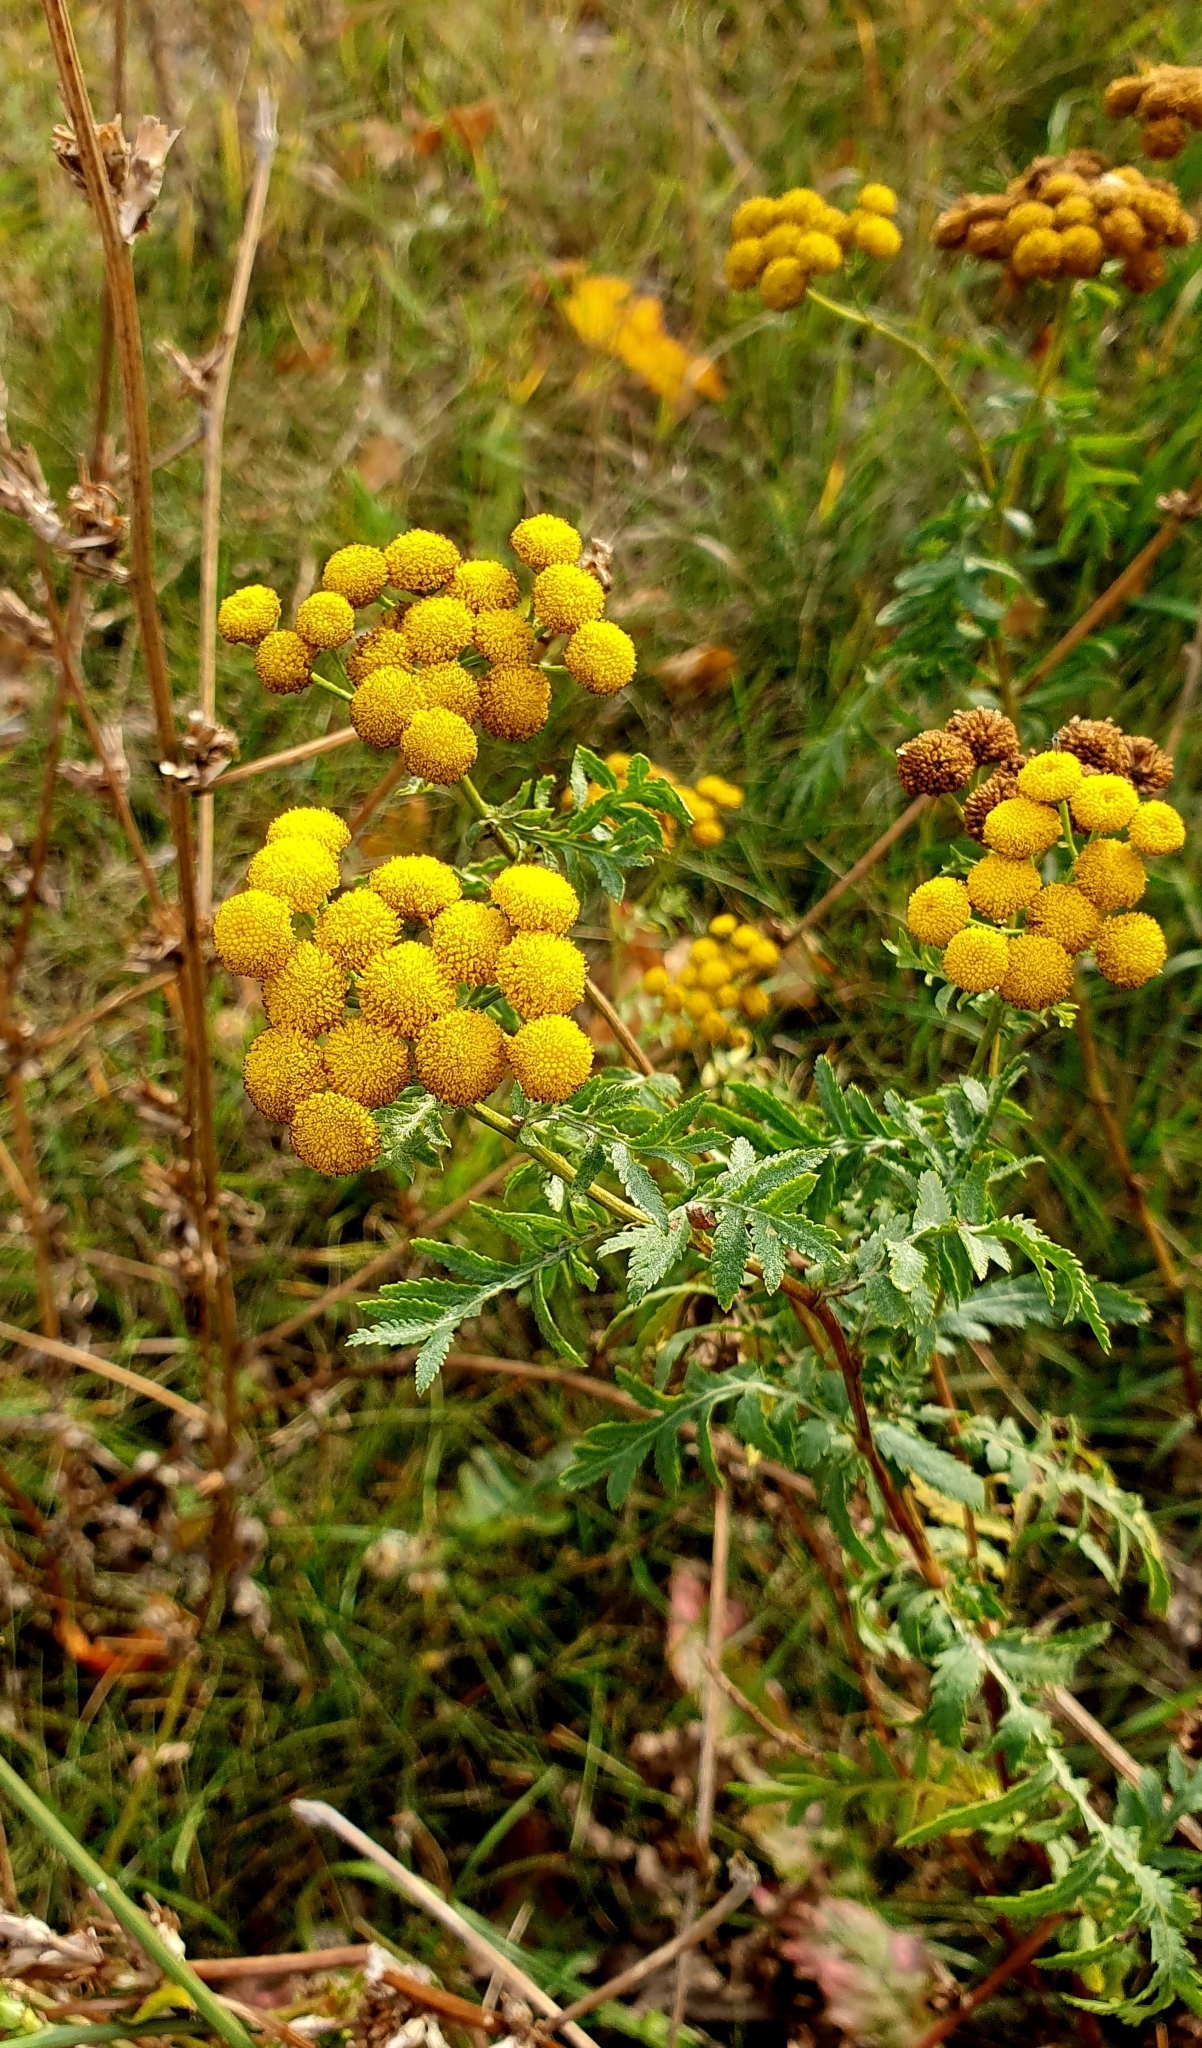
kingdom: Plantae
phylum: Tracheophyta
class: Magnoliopsida
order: Asterales
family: Asteraceae
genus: Tanacetum
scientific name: Tanacetum vulgare
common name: Common tansy
